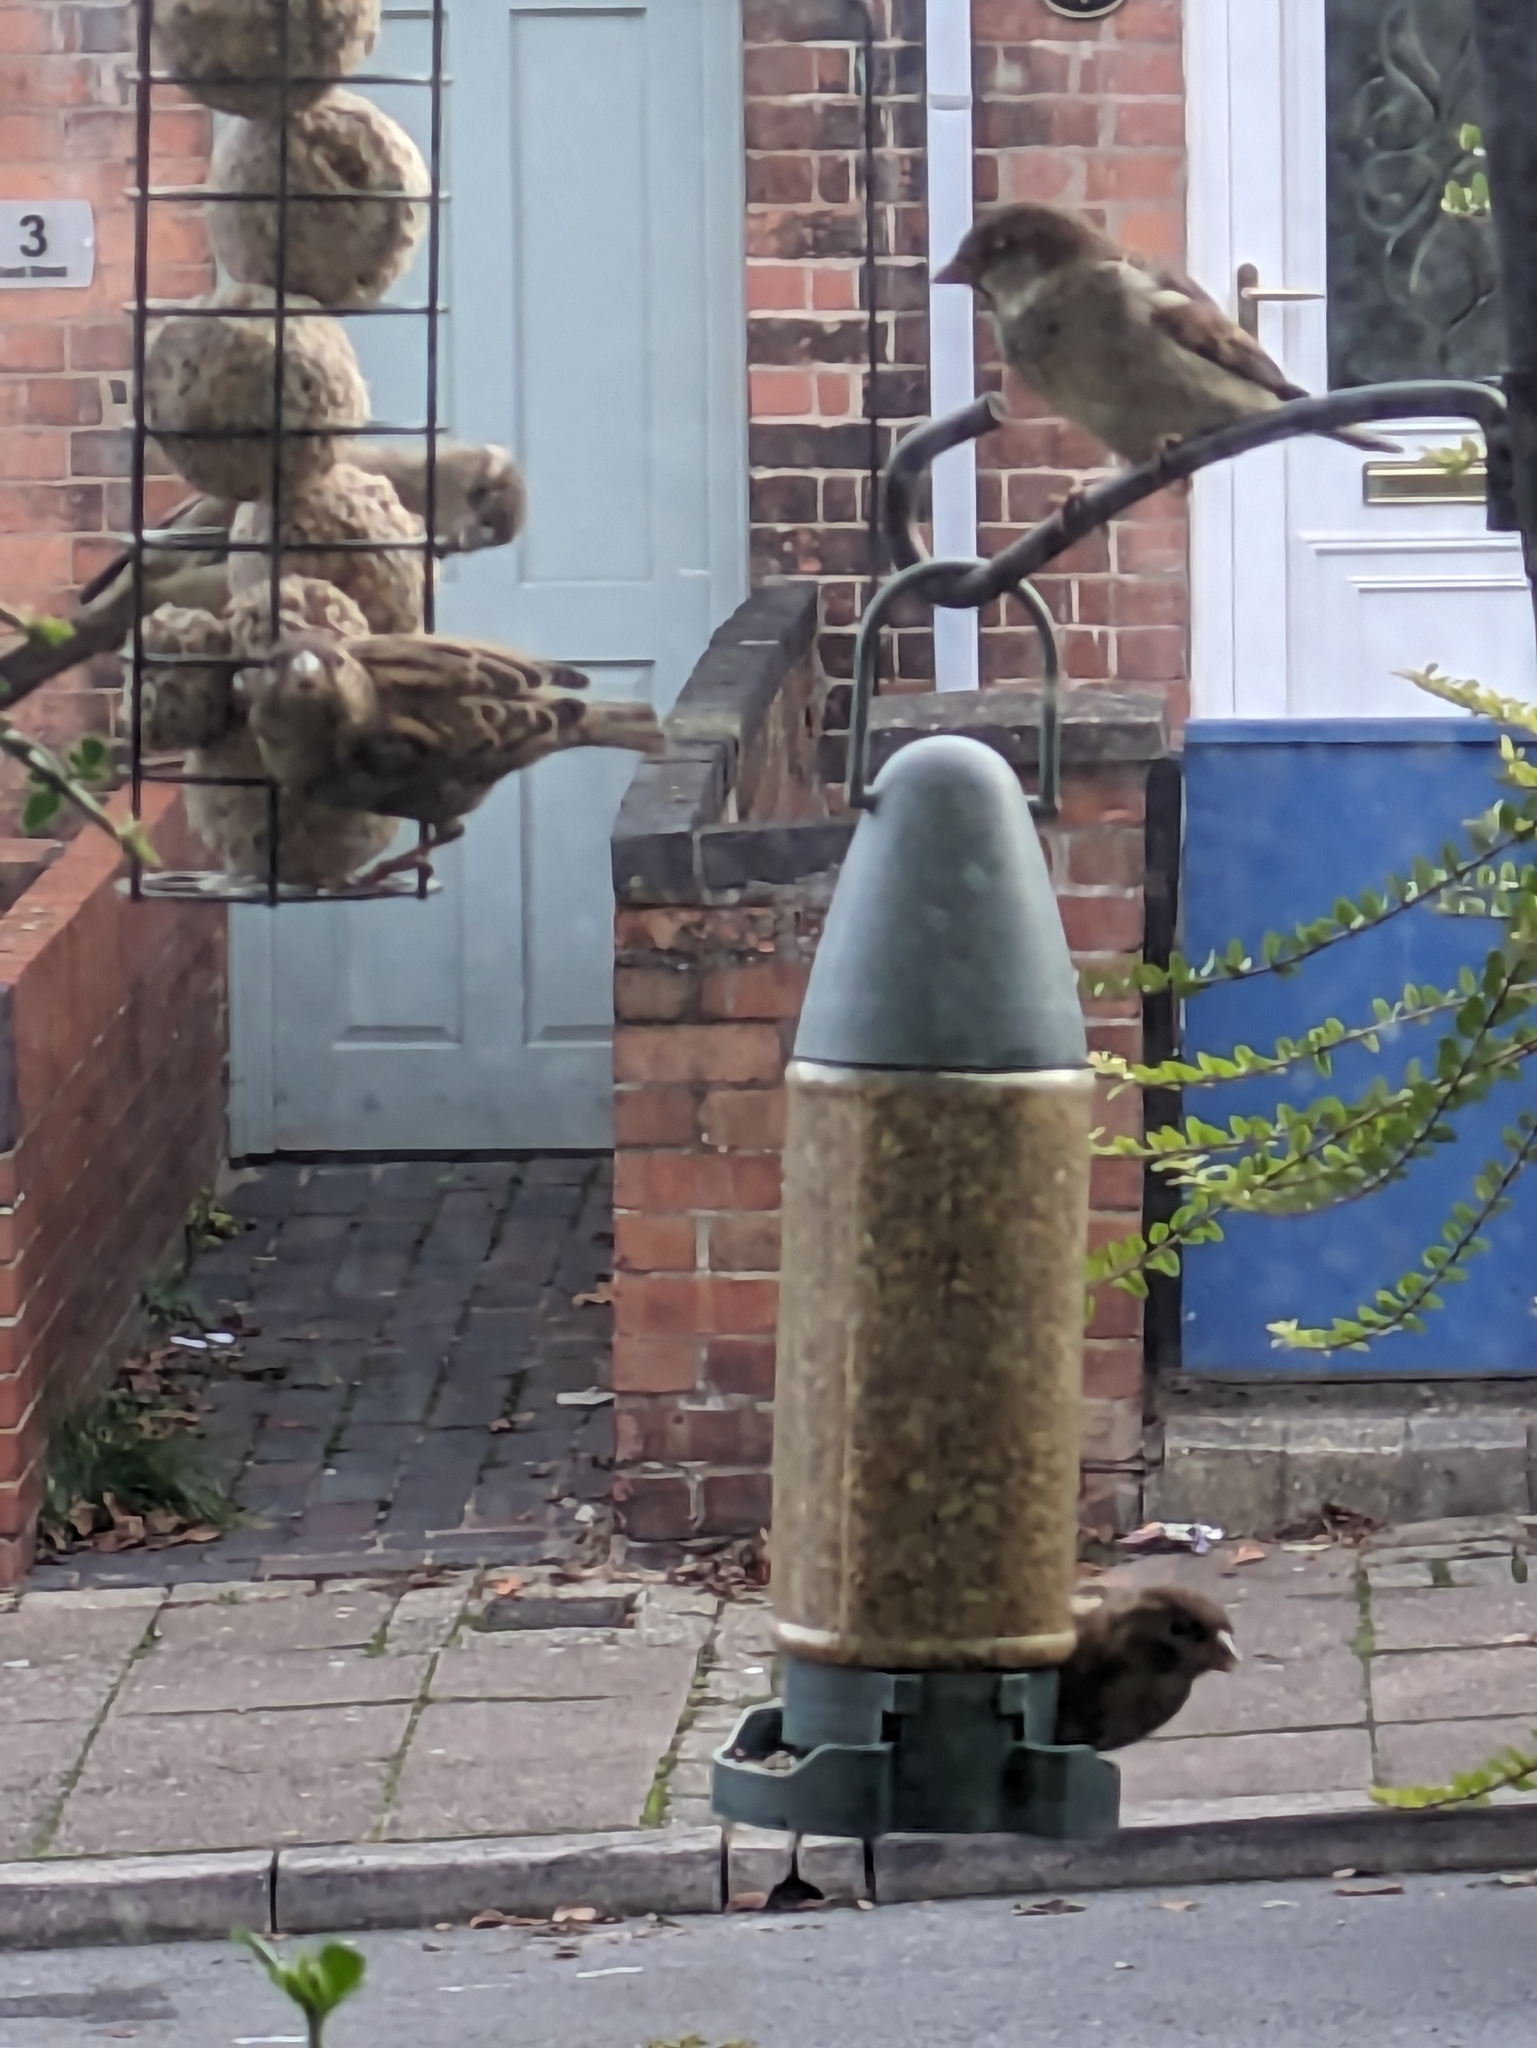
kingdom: Animalia
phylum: Chordata
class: Aves
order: Passeriformes
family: Passeridae
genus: Passer
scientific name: Passer domesticus
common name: House sparrow
